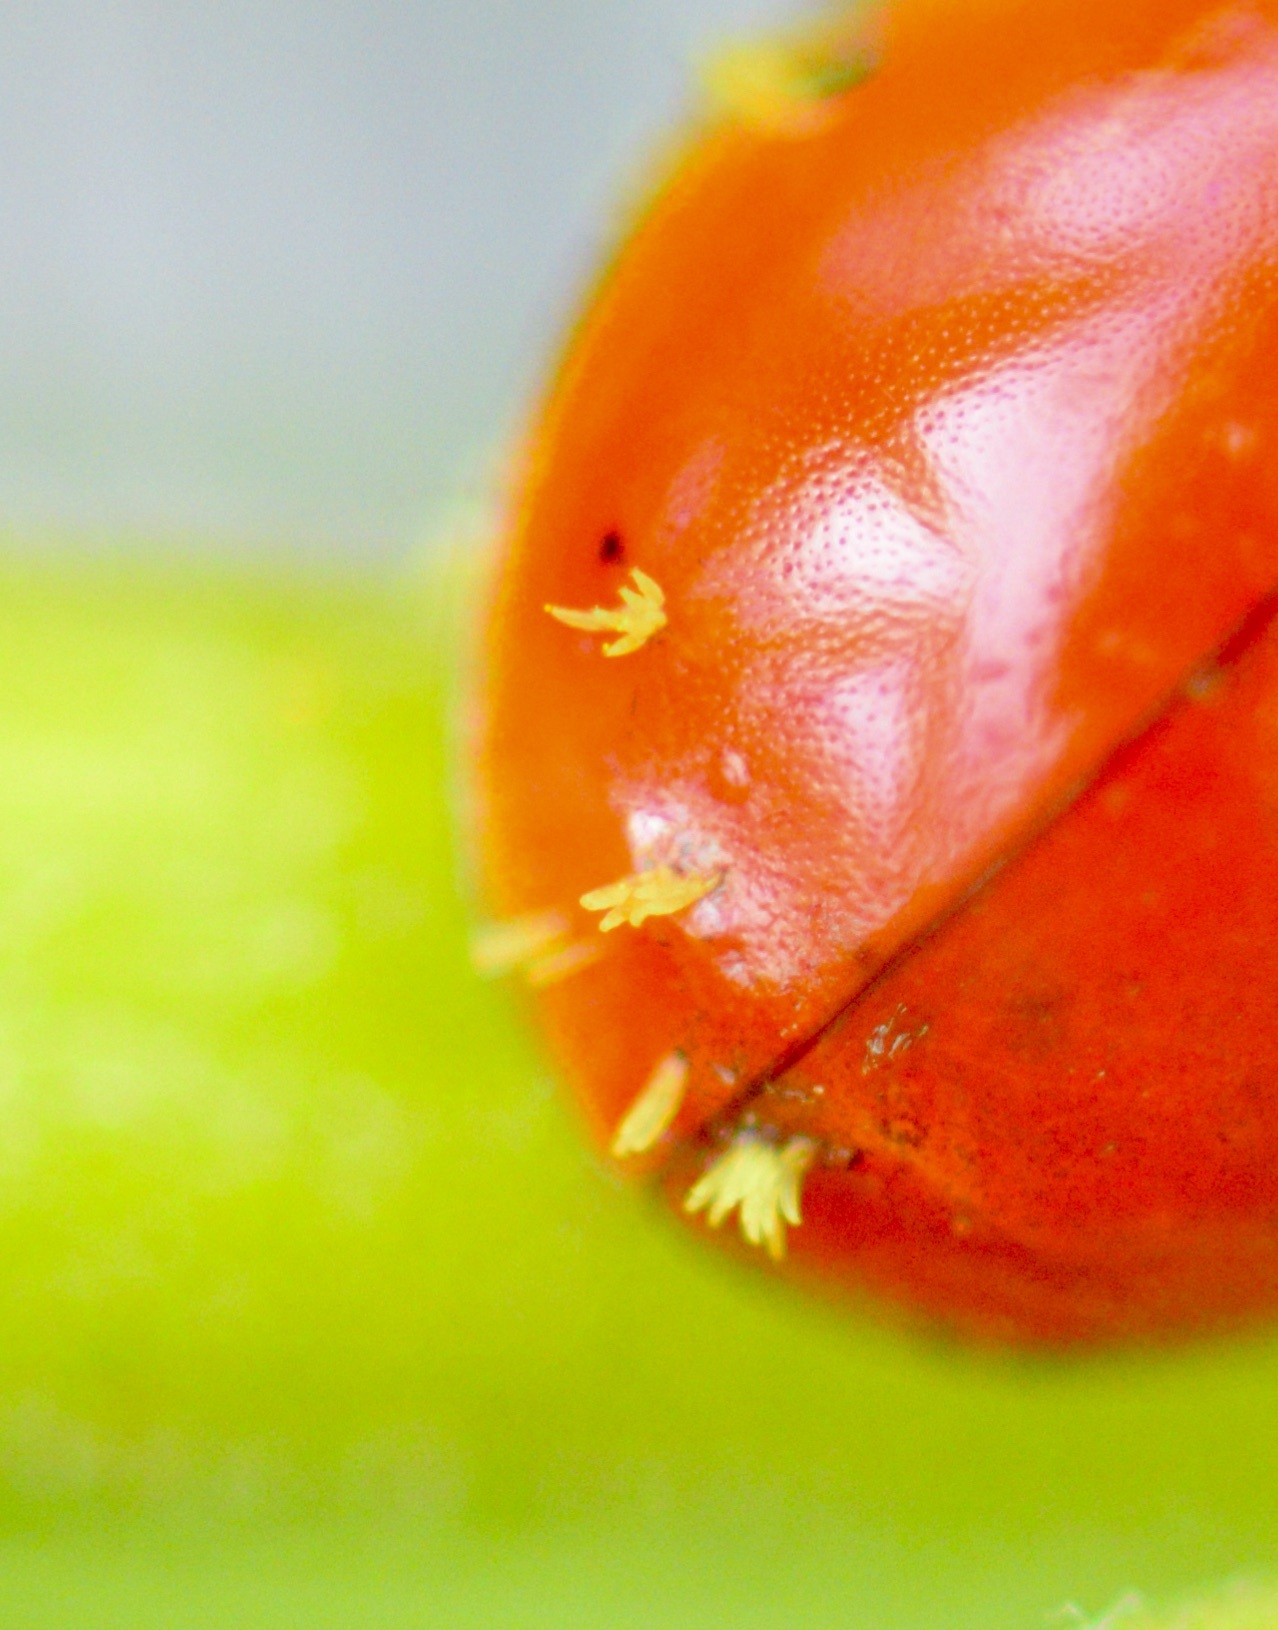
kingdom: Fungi
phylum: Ascomycota
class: Laboulbeniomycetes
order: Laboulbeniales
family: Laboulbeniaceae
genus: Hesperomyces
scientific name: Hesperomyces harmoniae
